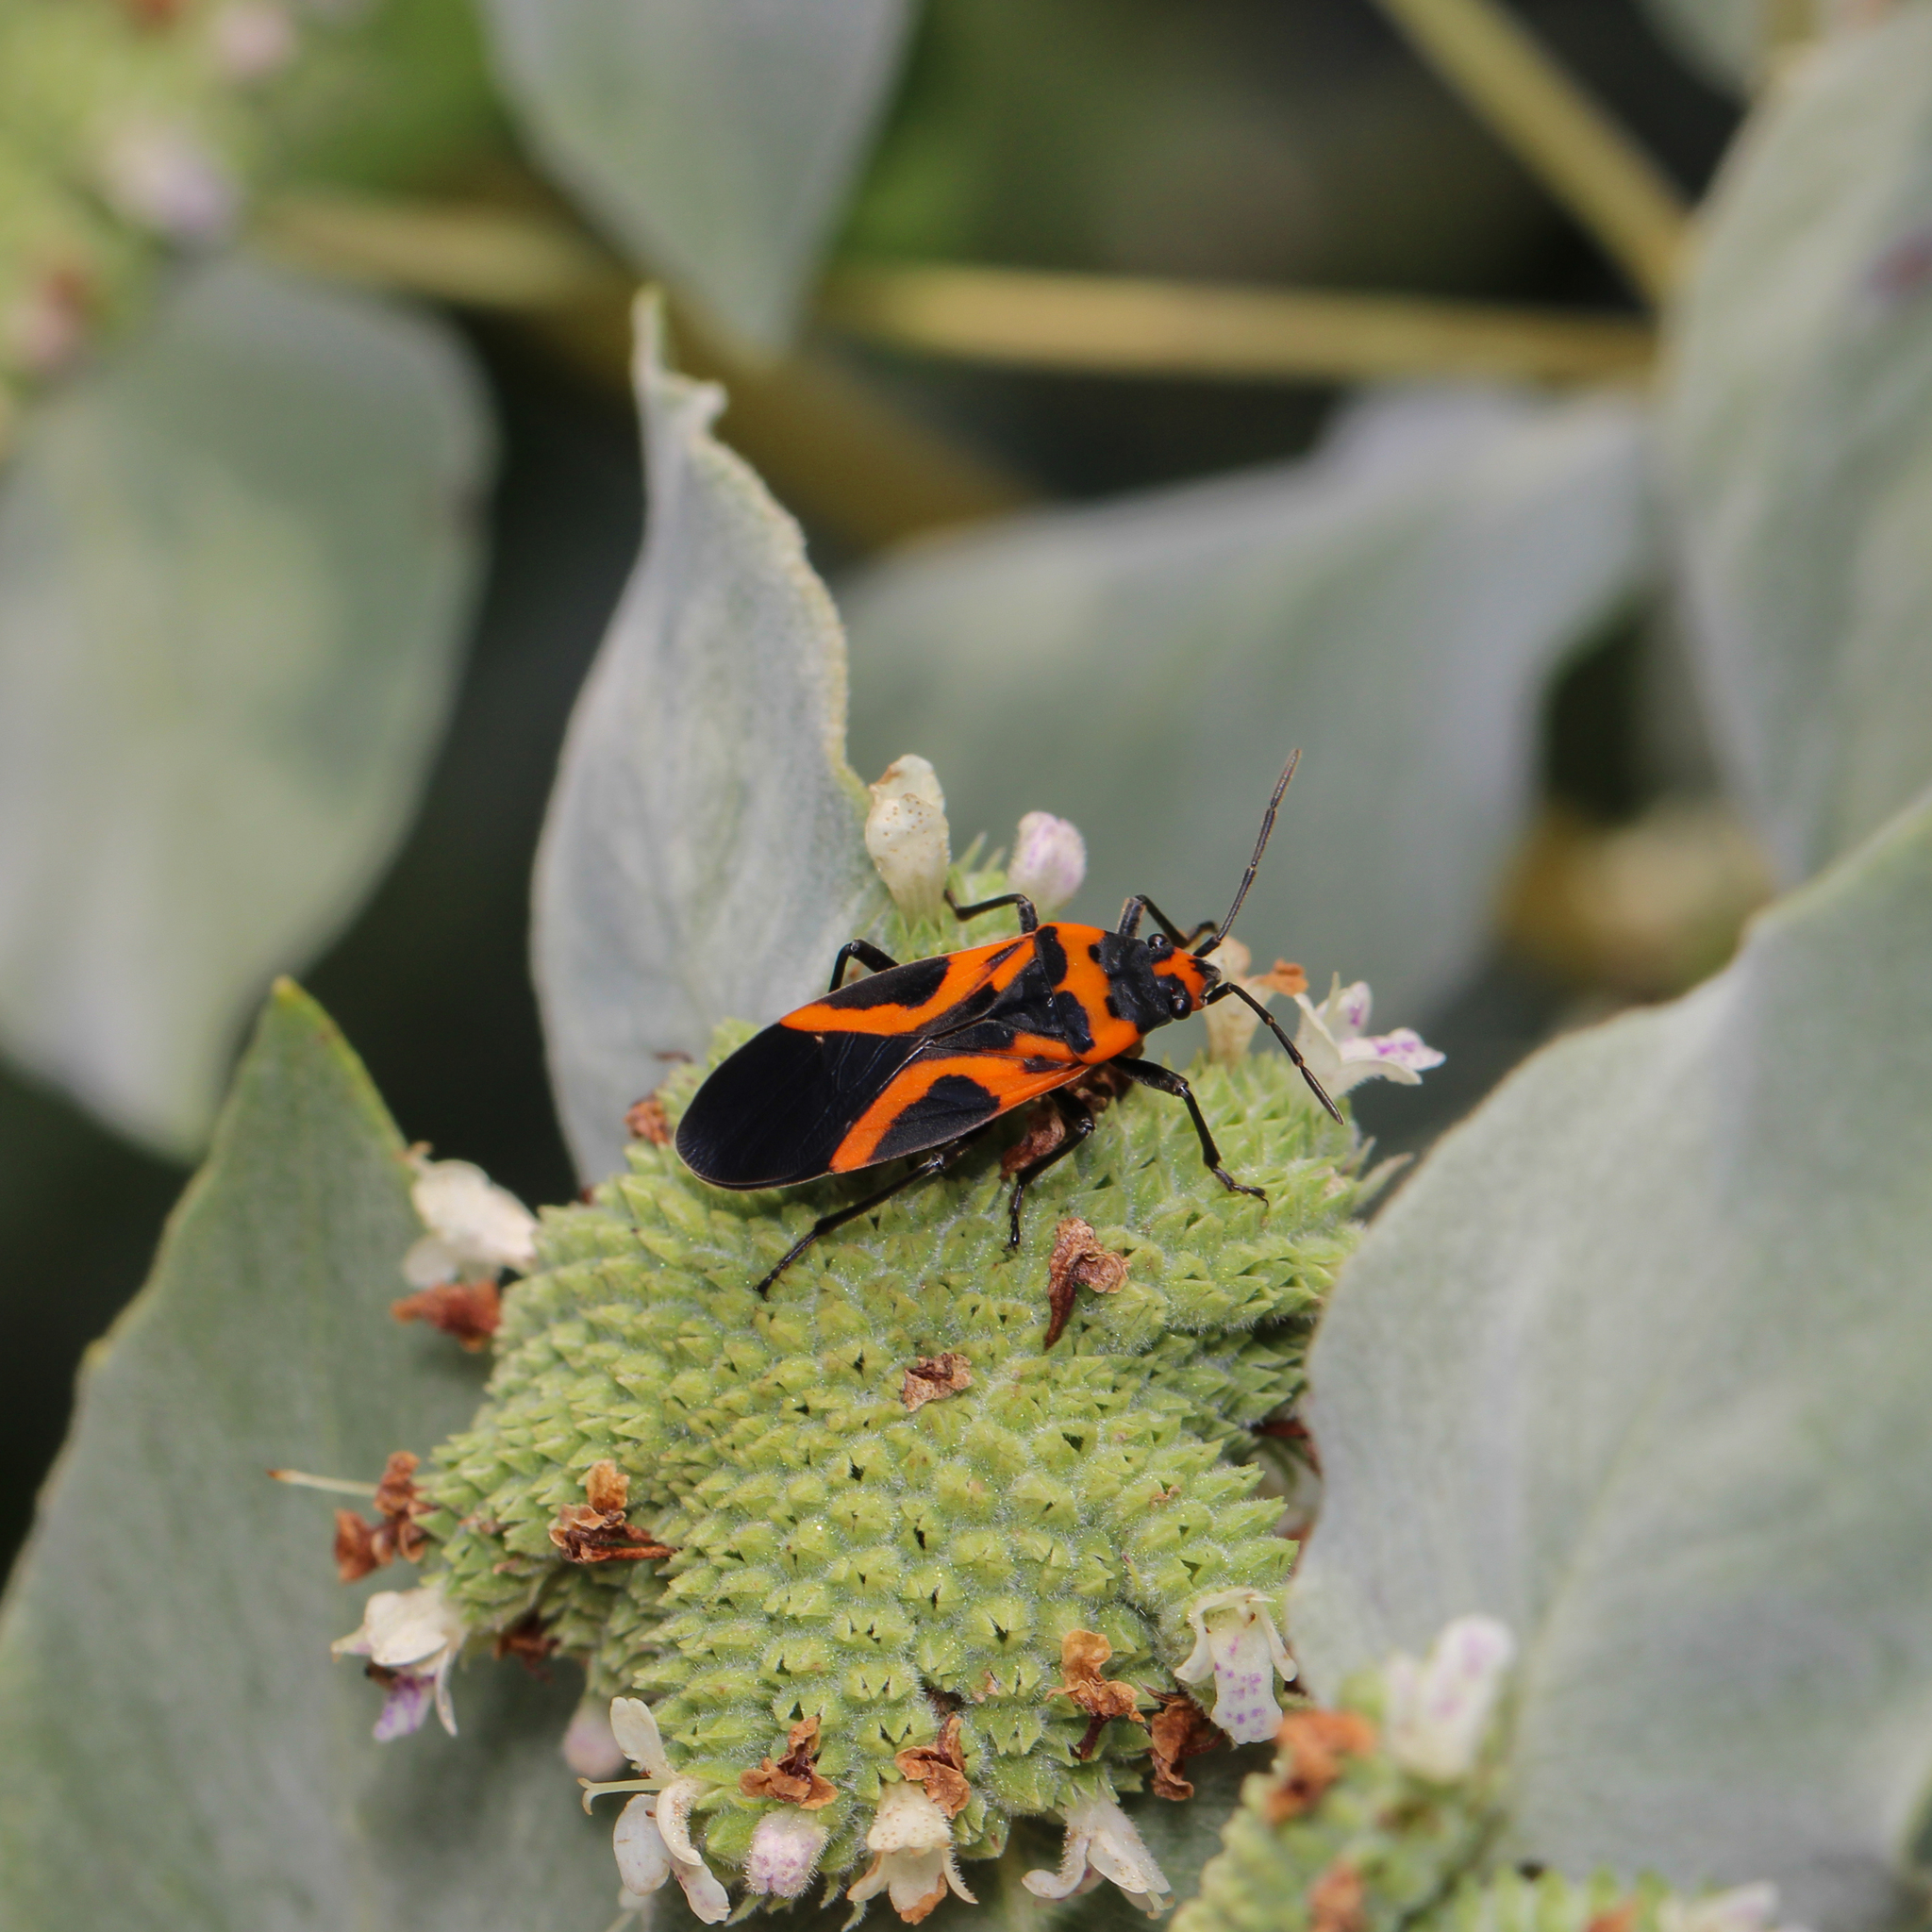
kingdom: Animalia
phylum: Arthropoda
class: Insecta
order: Hemiptera
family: Lygaeidae
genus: Lygaeus
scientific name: Lygaeus turcicus
